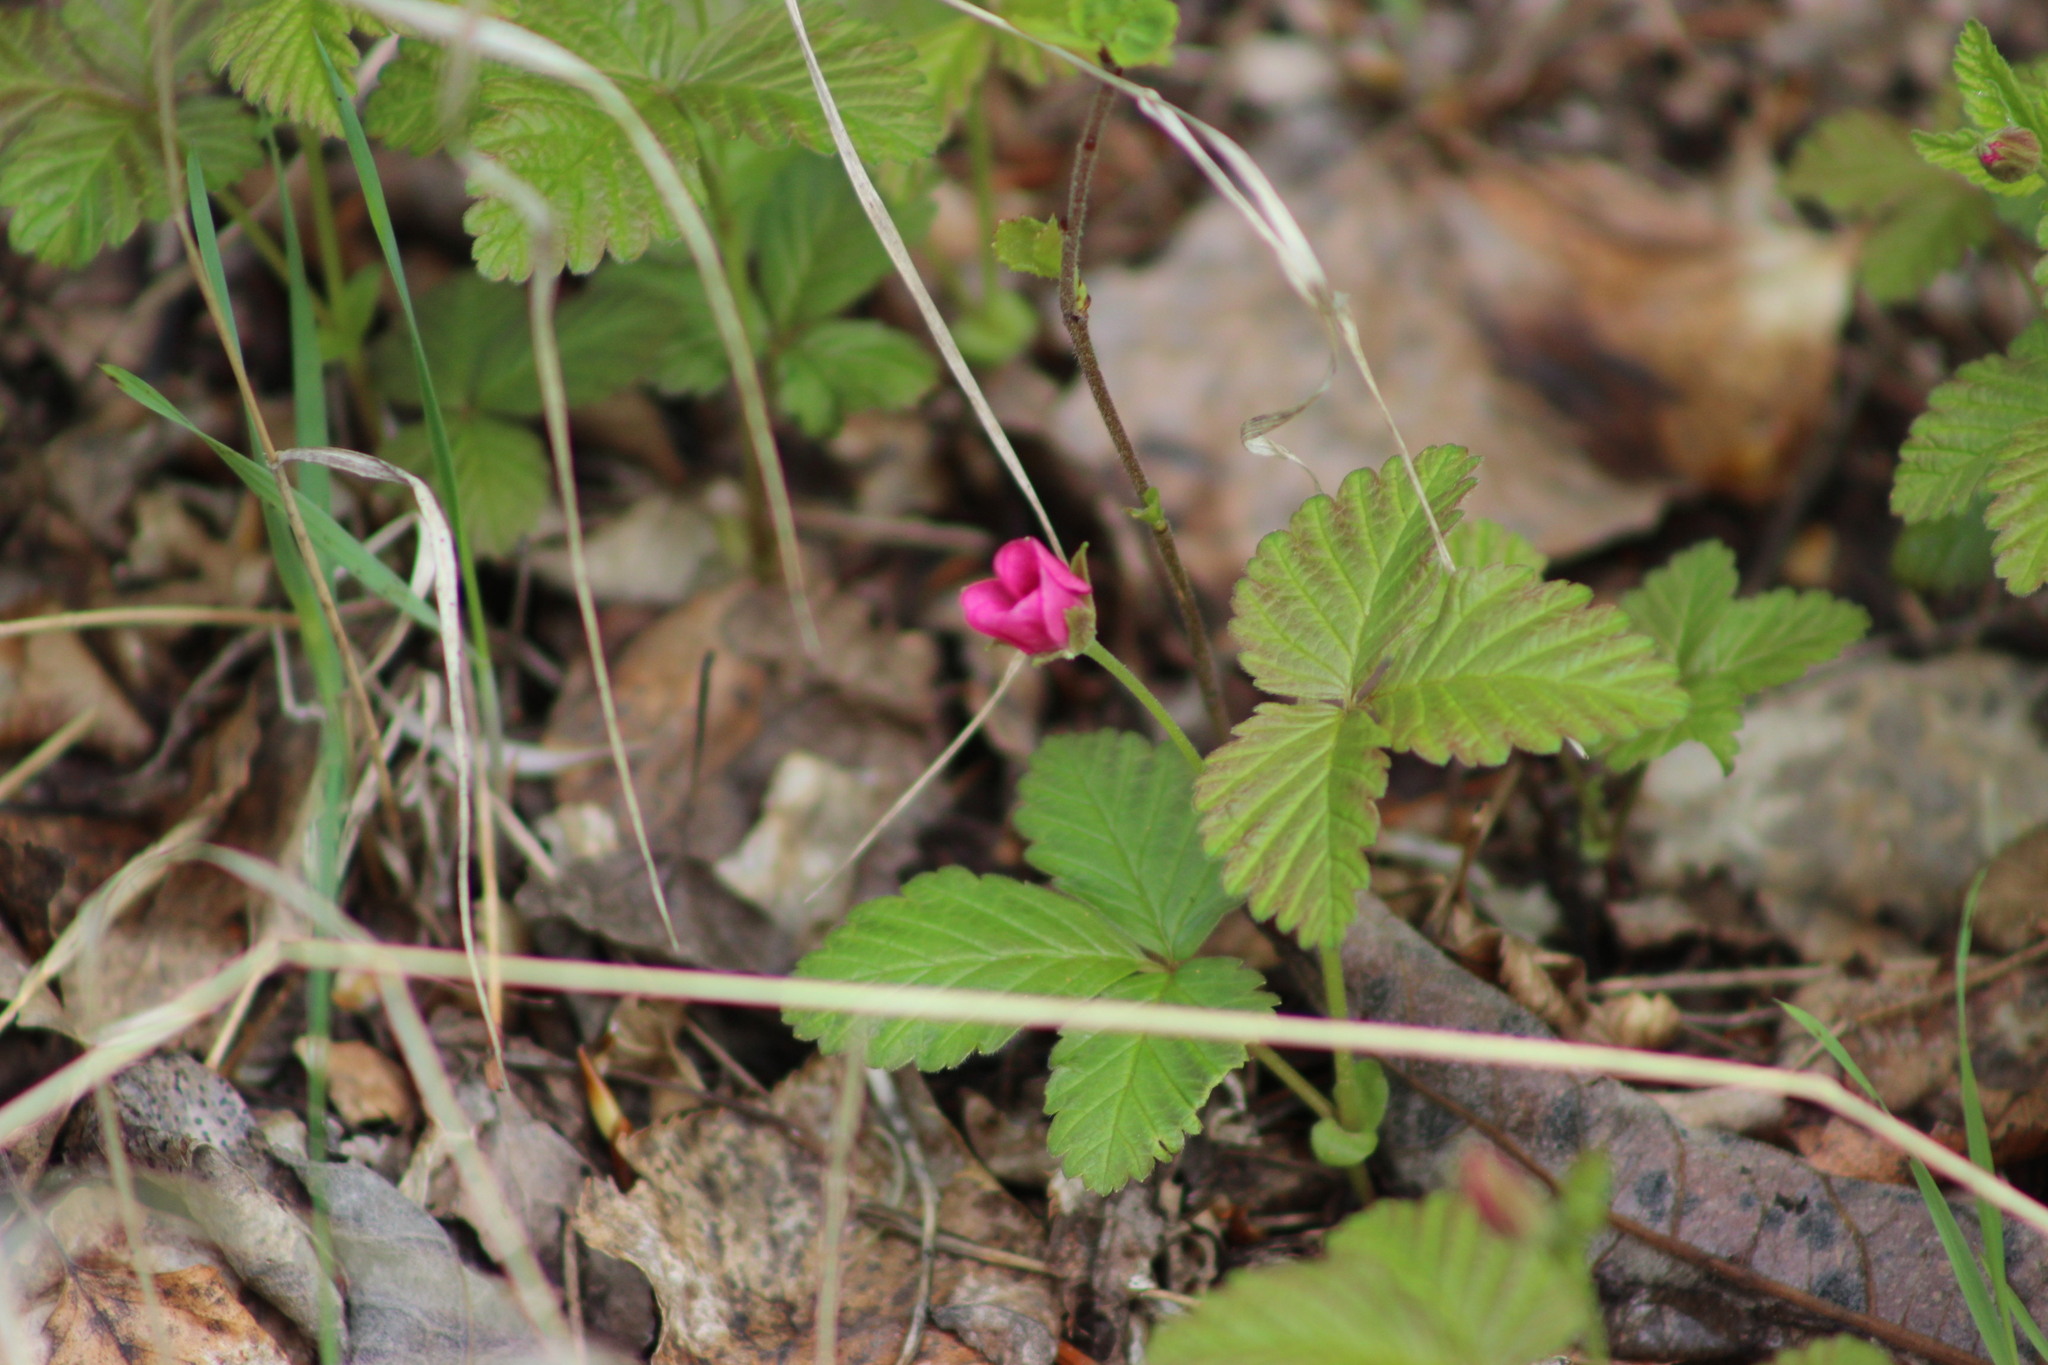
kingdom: Plantae
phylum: Tracheophyta
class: Magnoliopsida
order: Rosales
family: Rosaceae
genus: Rubus
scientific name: Rubus arcticus
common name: Arctic bramble
